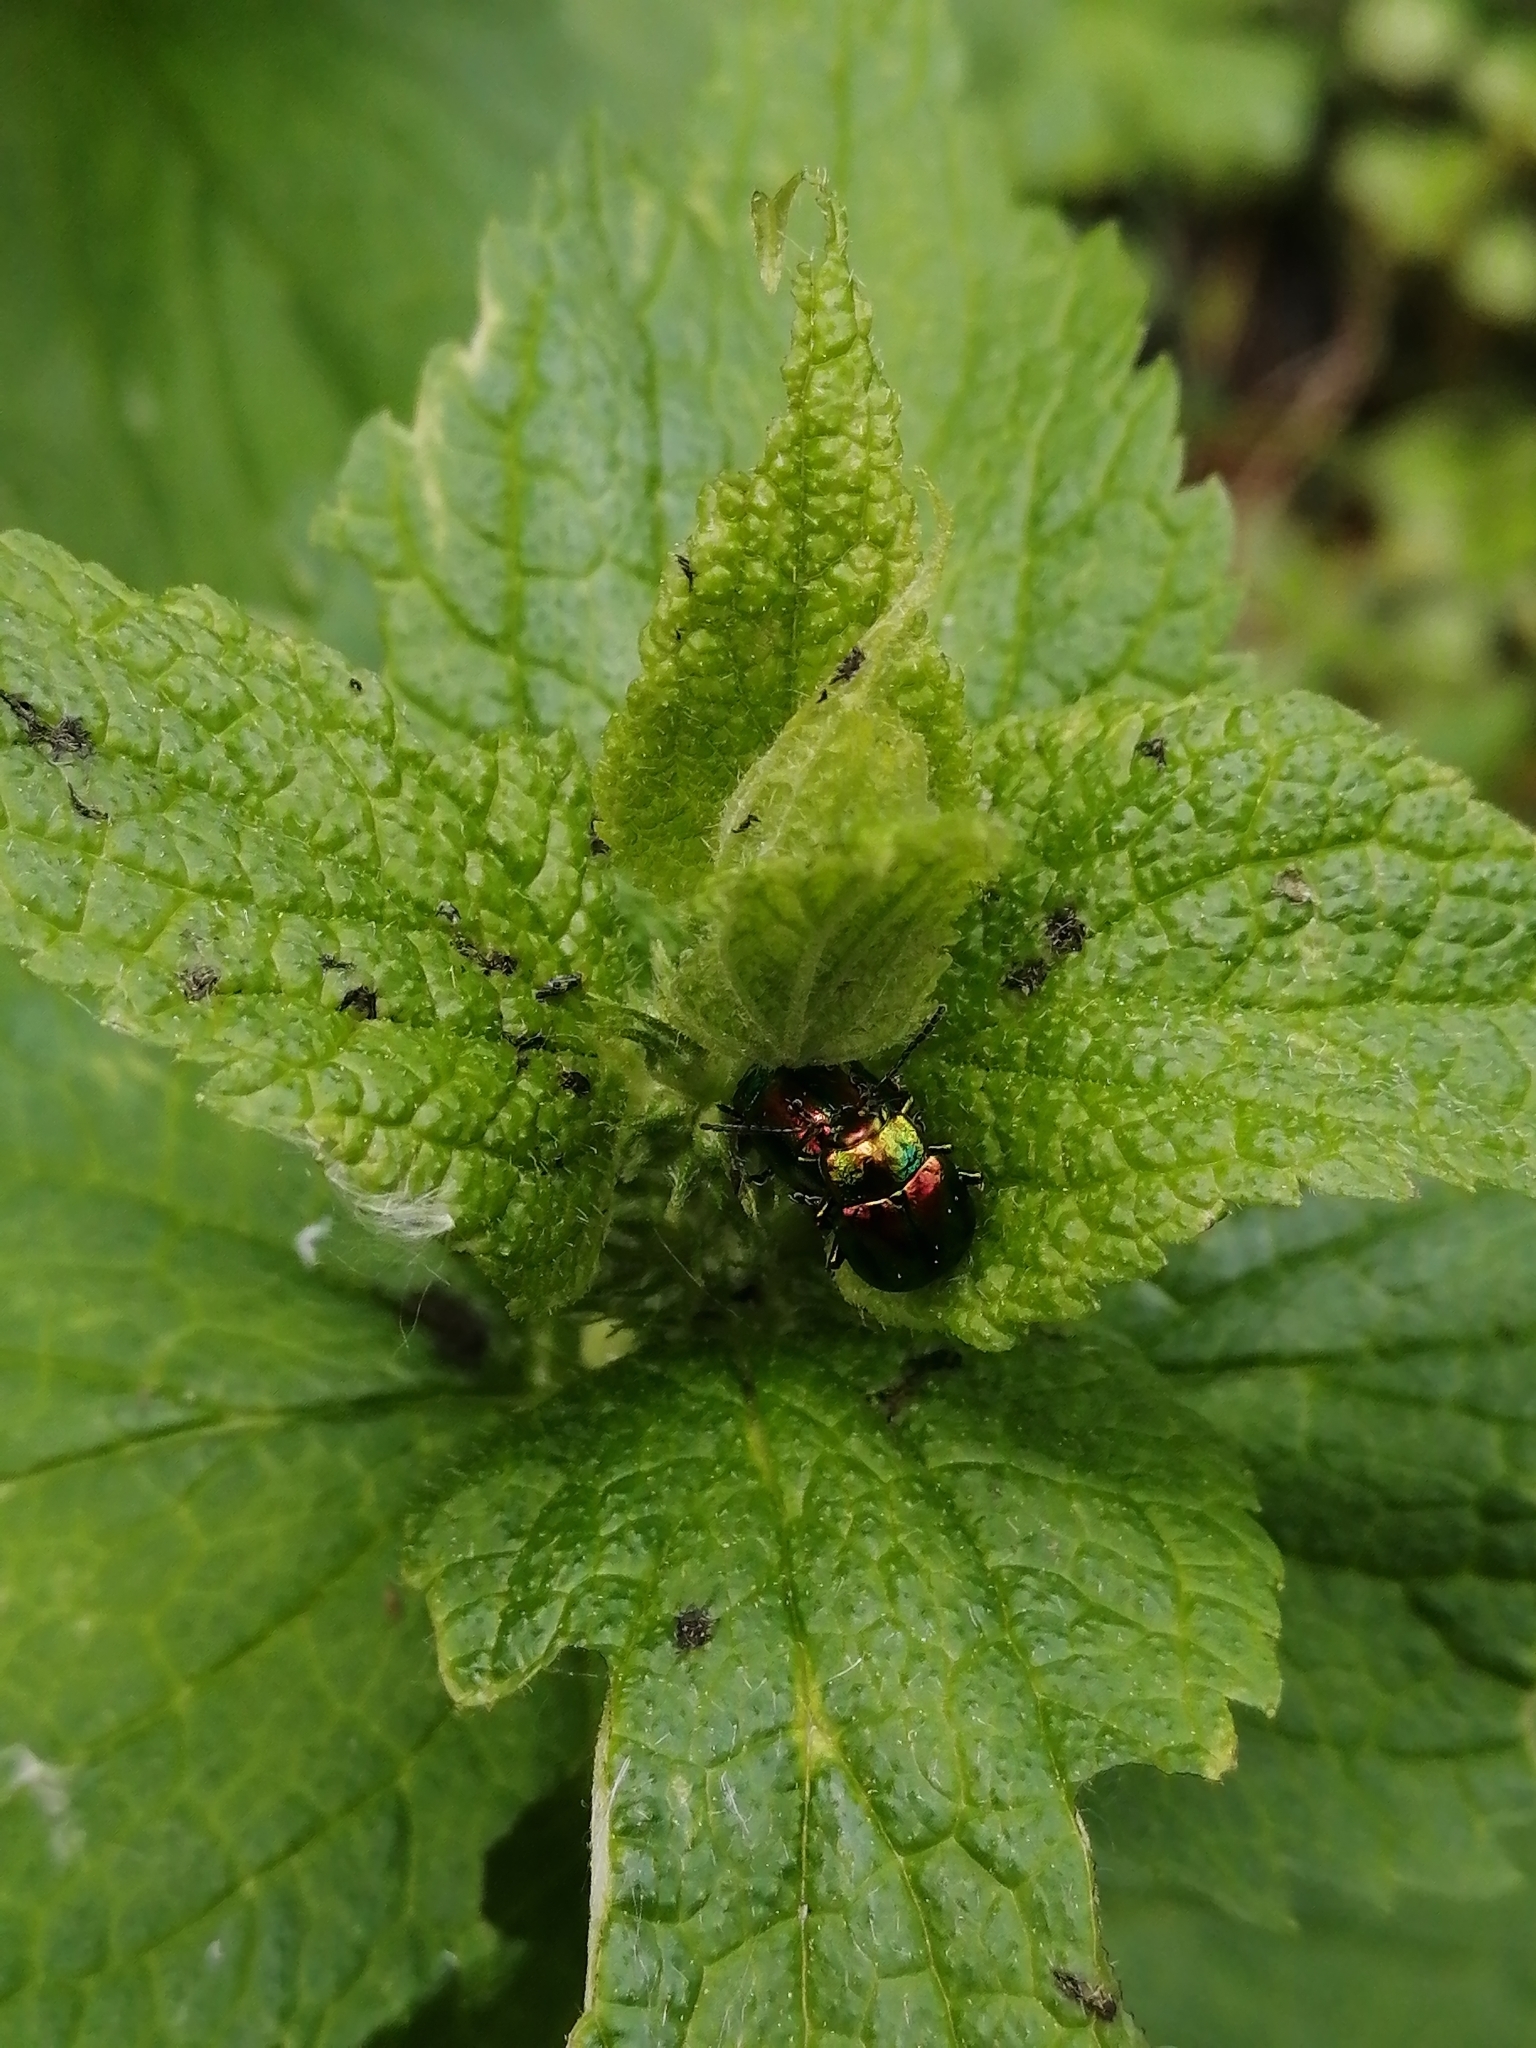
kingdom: Animalia
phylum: Arthropoda
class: Insecta
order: Coleoptera
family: Chrysomelidae
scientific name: Chrysomelidae
